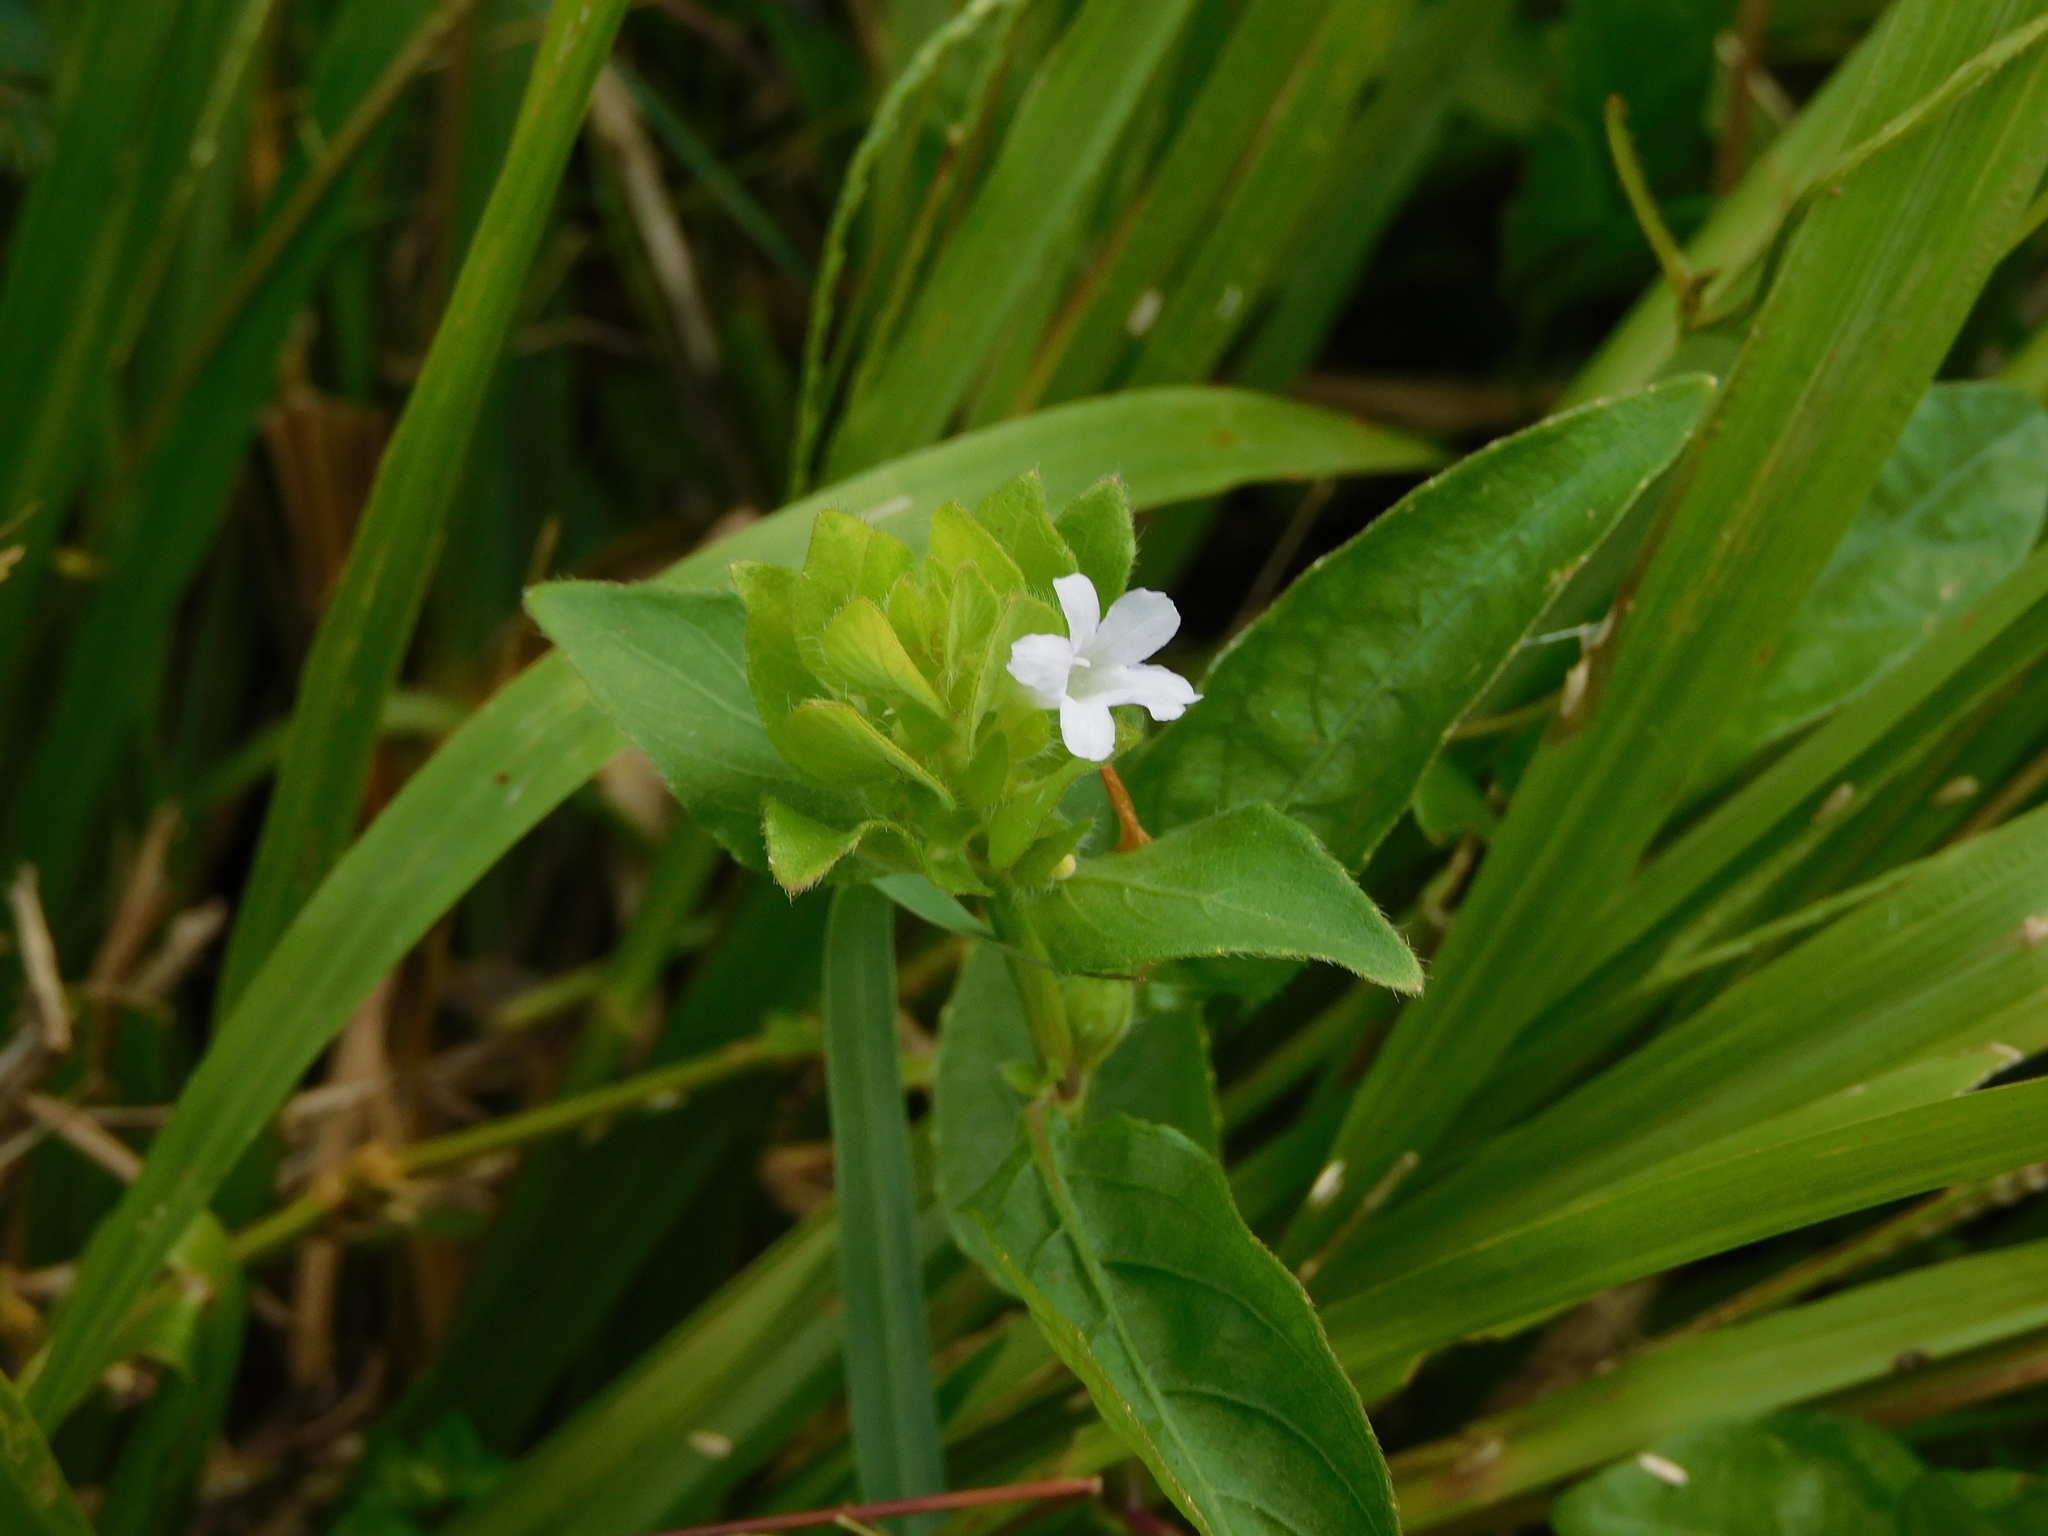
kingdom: Plantae
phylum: Tracheophyta
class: Magnoliopsida
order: Lamiales
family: Acanthaceae
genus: Ruellia
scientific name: Ruellia blechum
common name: Browne's blechum
